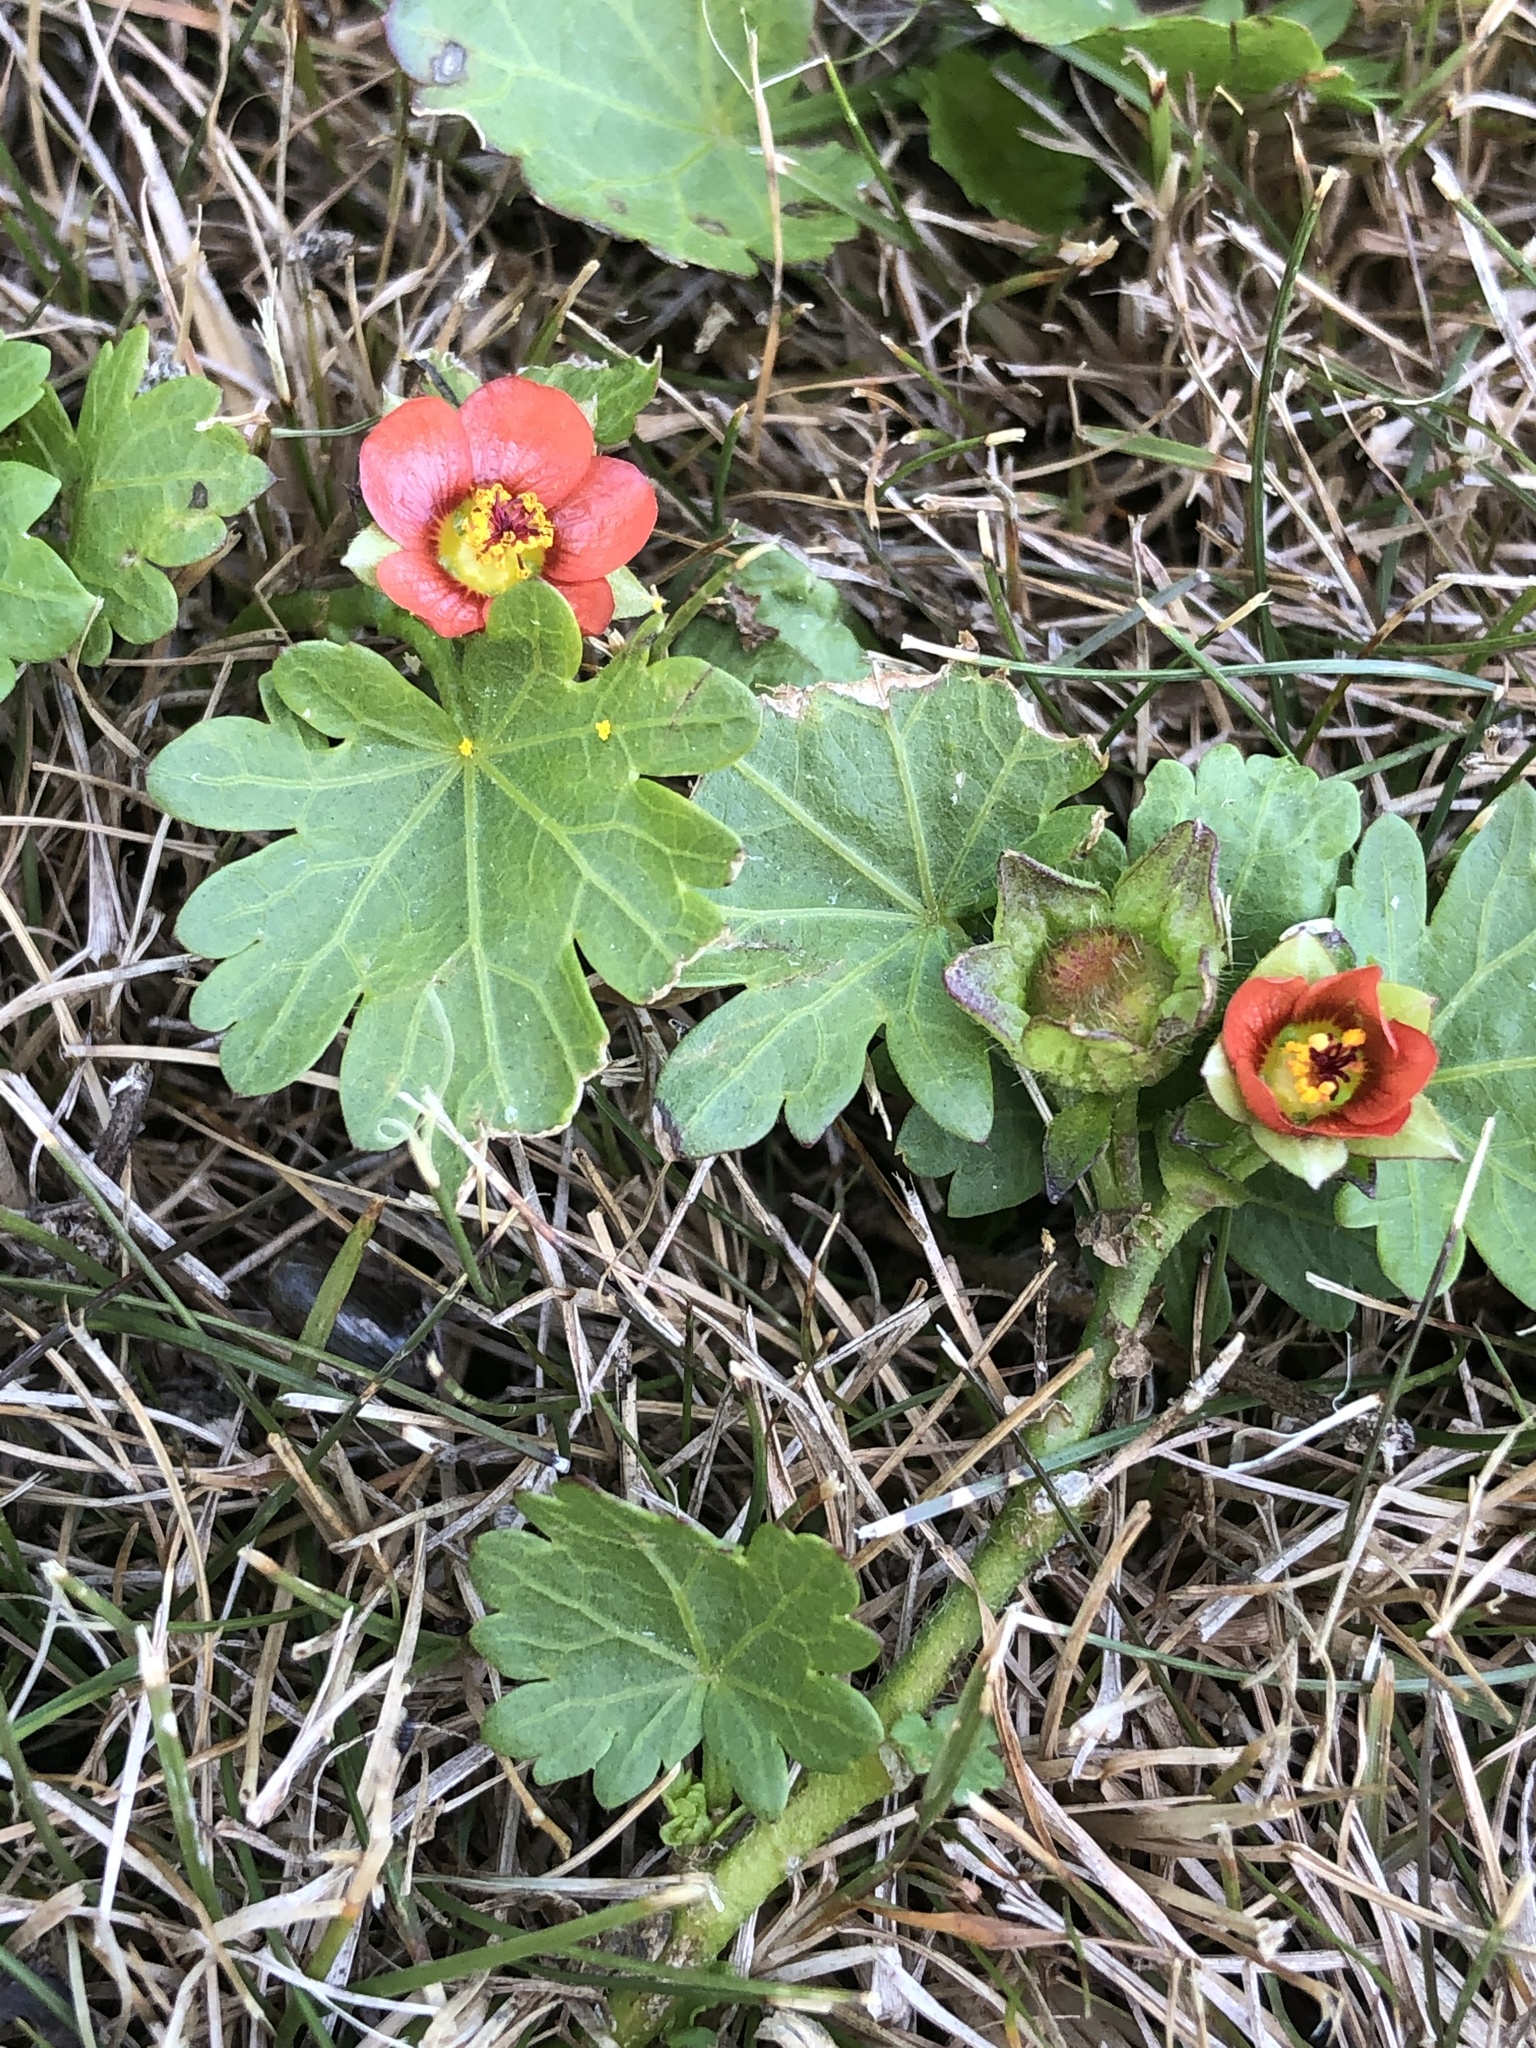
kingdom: Plantae
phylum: Tracheophyta
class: Magnoliopsida
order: Malvales
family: Malvaceae
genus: Modiola
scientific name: Modiola caroliniana
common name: Carolina bristlemallow
